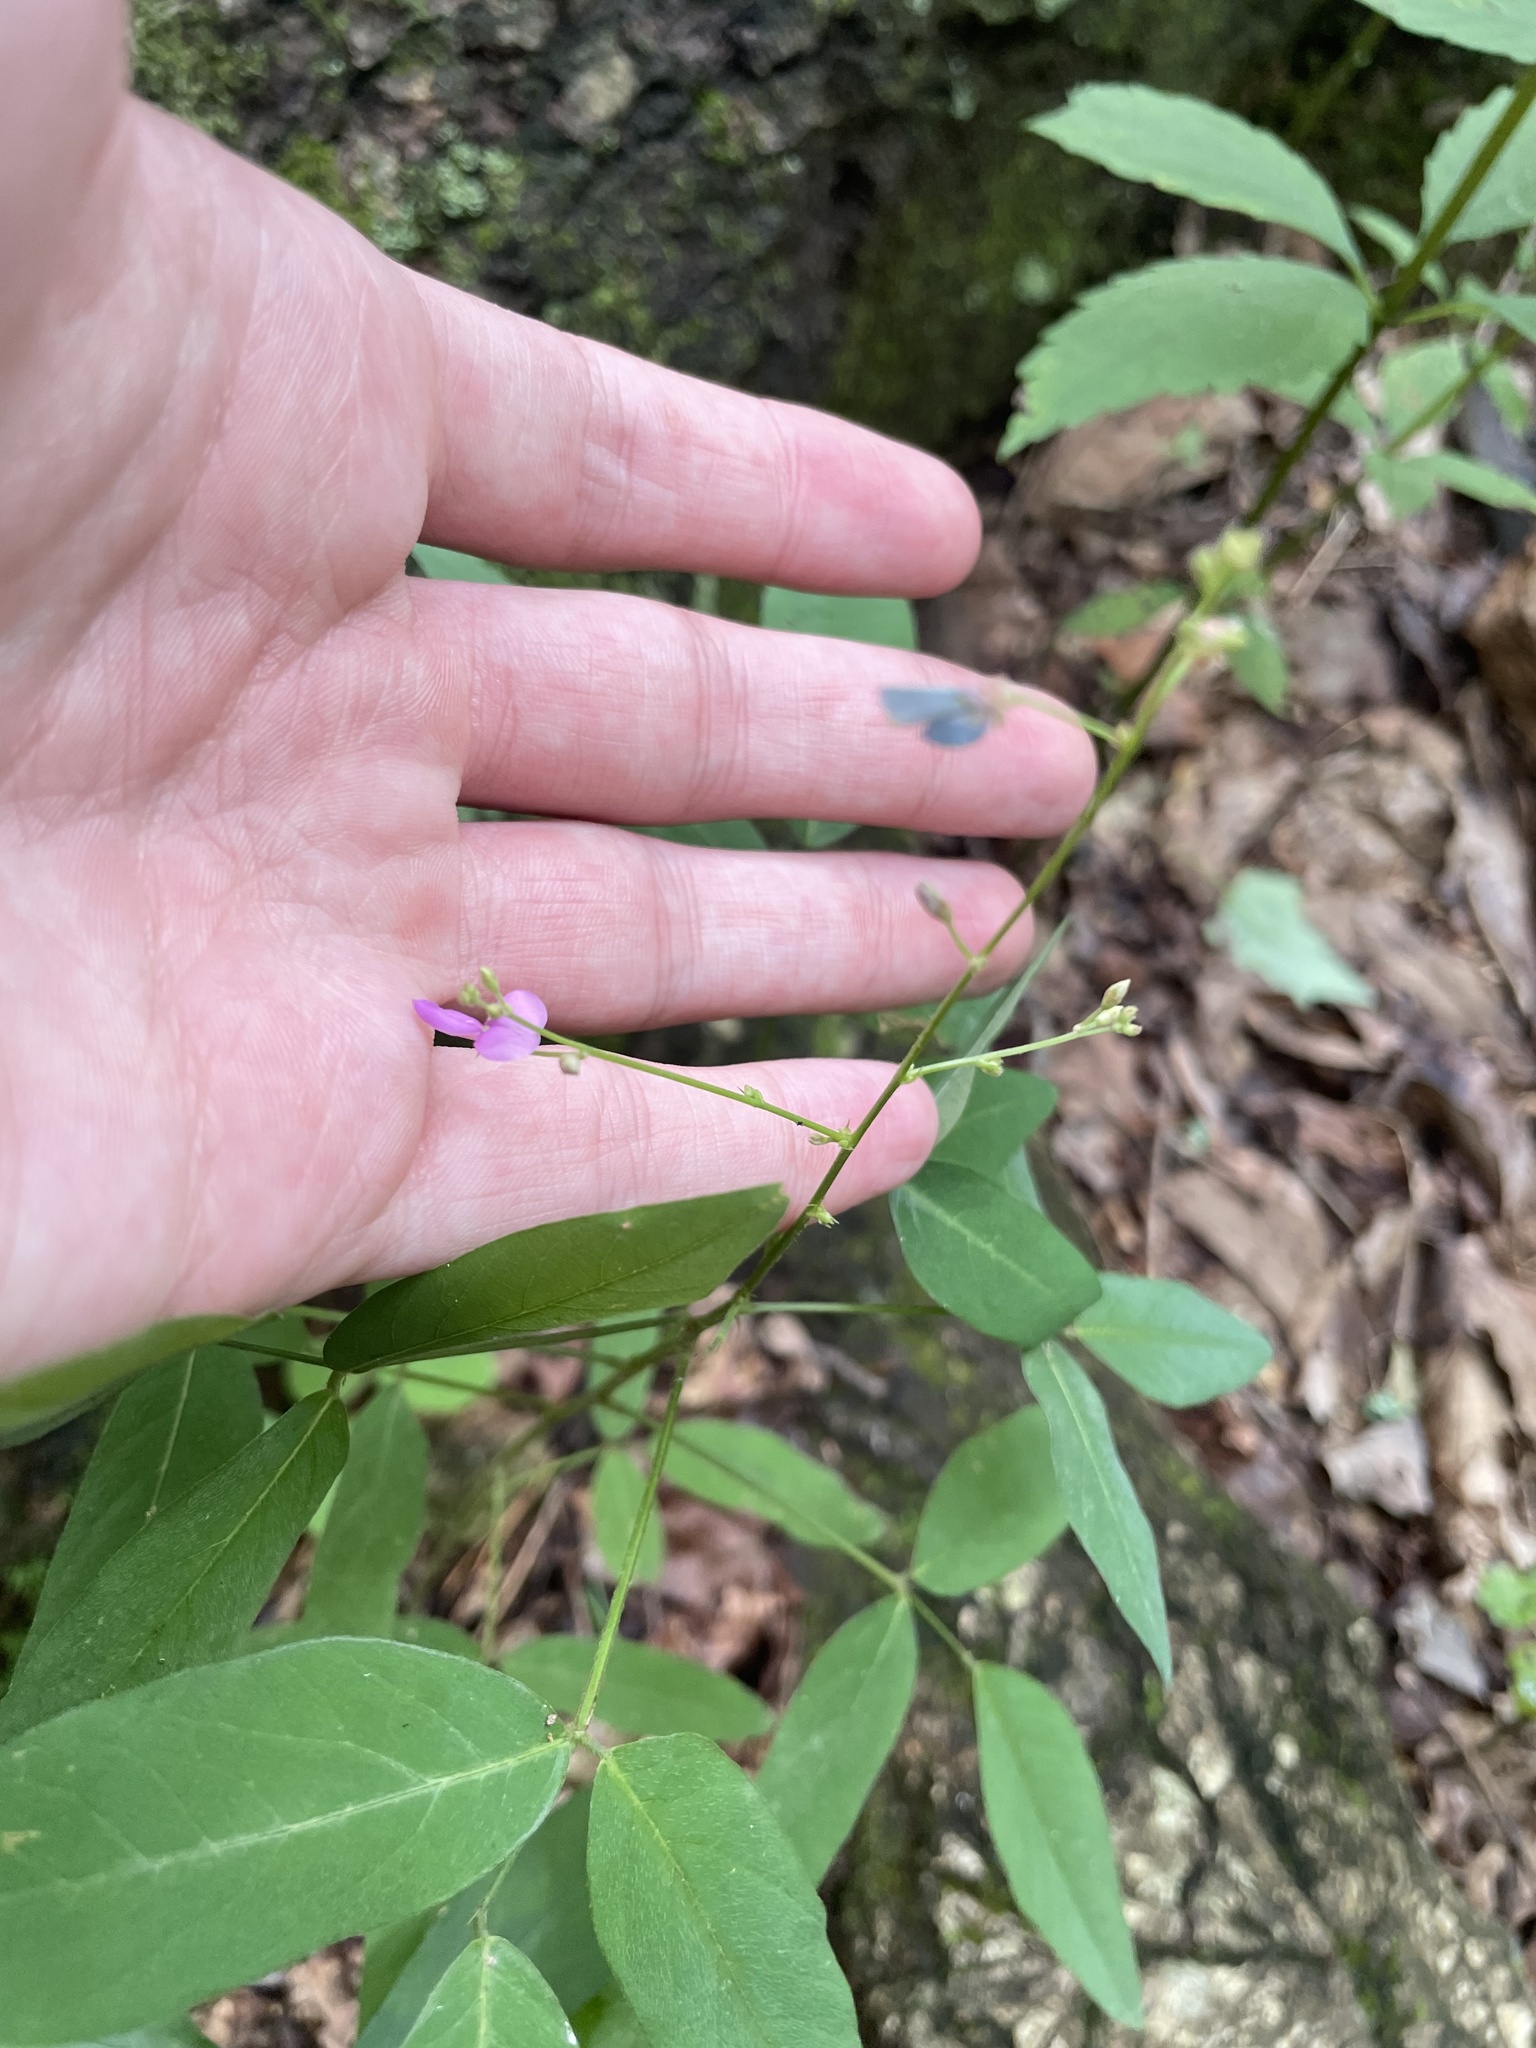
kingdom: Plantae
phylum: Tracheophyta
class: Magnoliopsida
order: Fabales
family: Fabaceae
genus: Desmodium
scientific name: Desmodium paniculatum
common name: Panicled tick-clover
